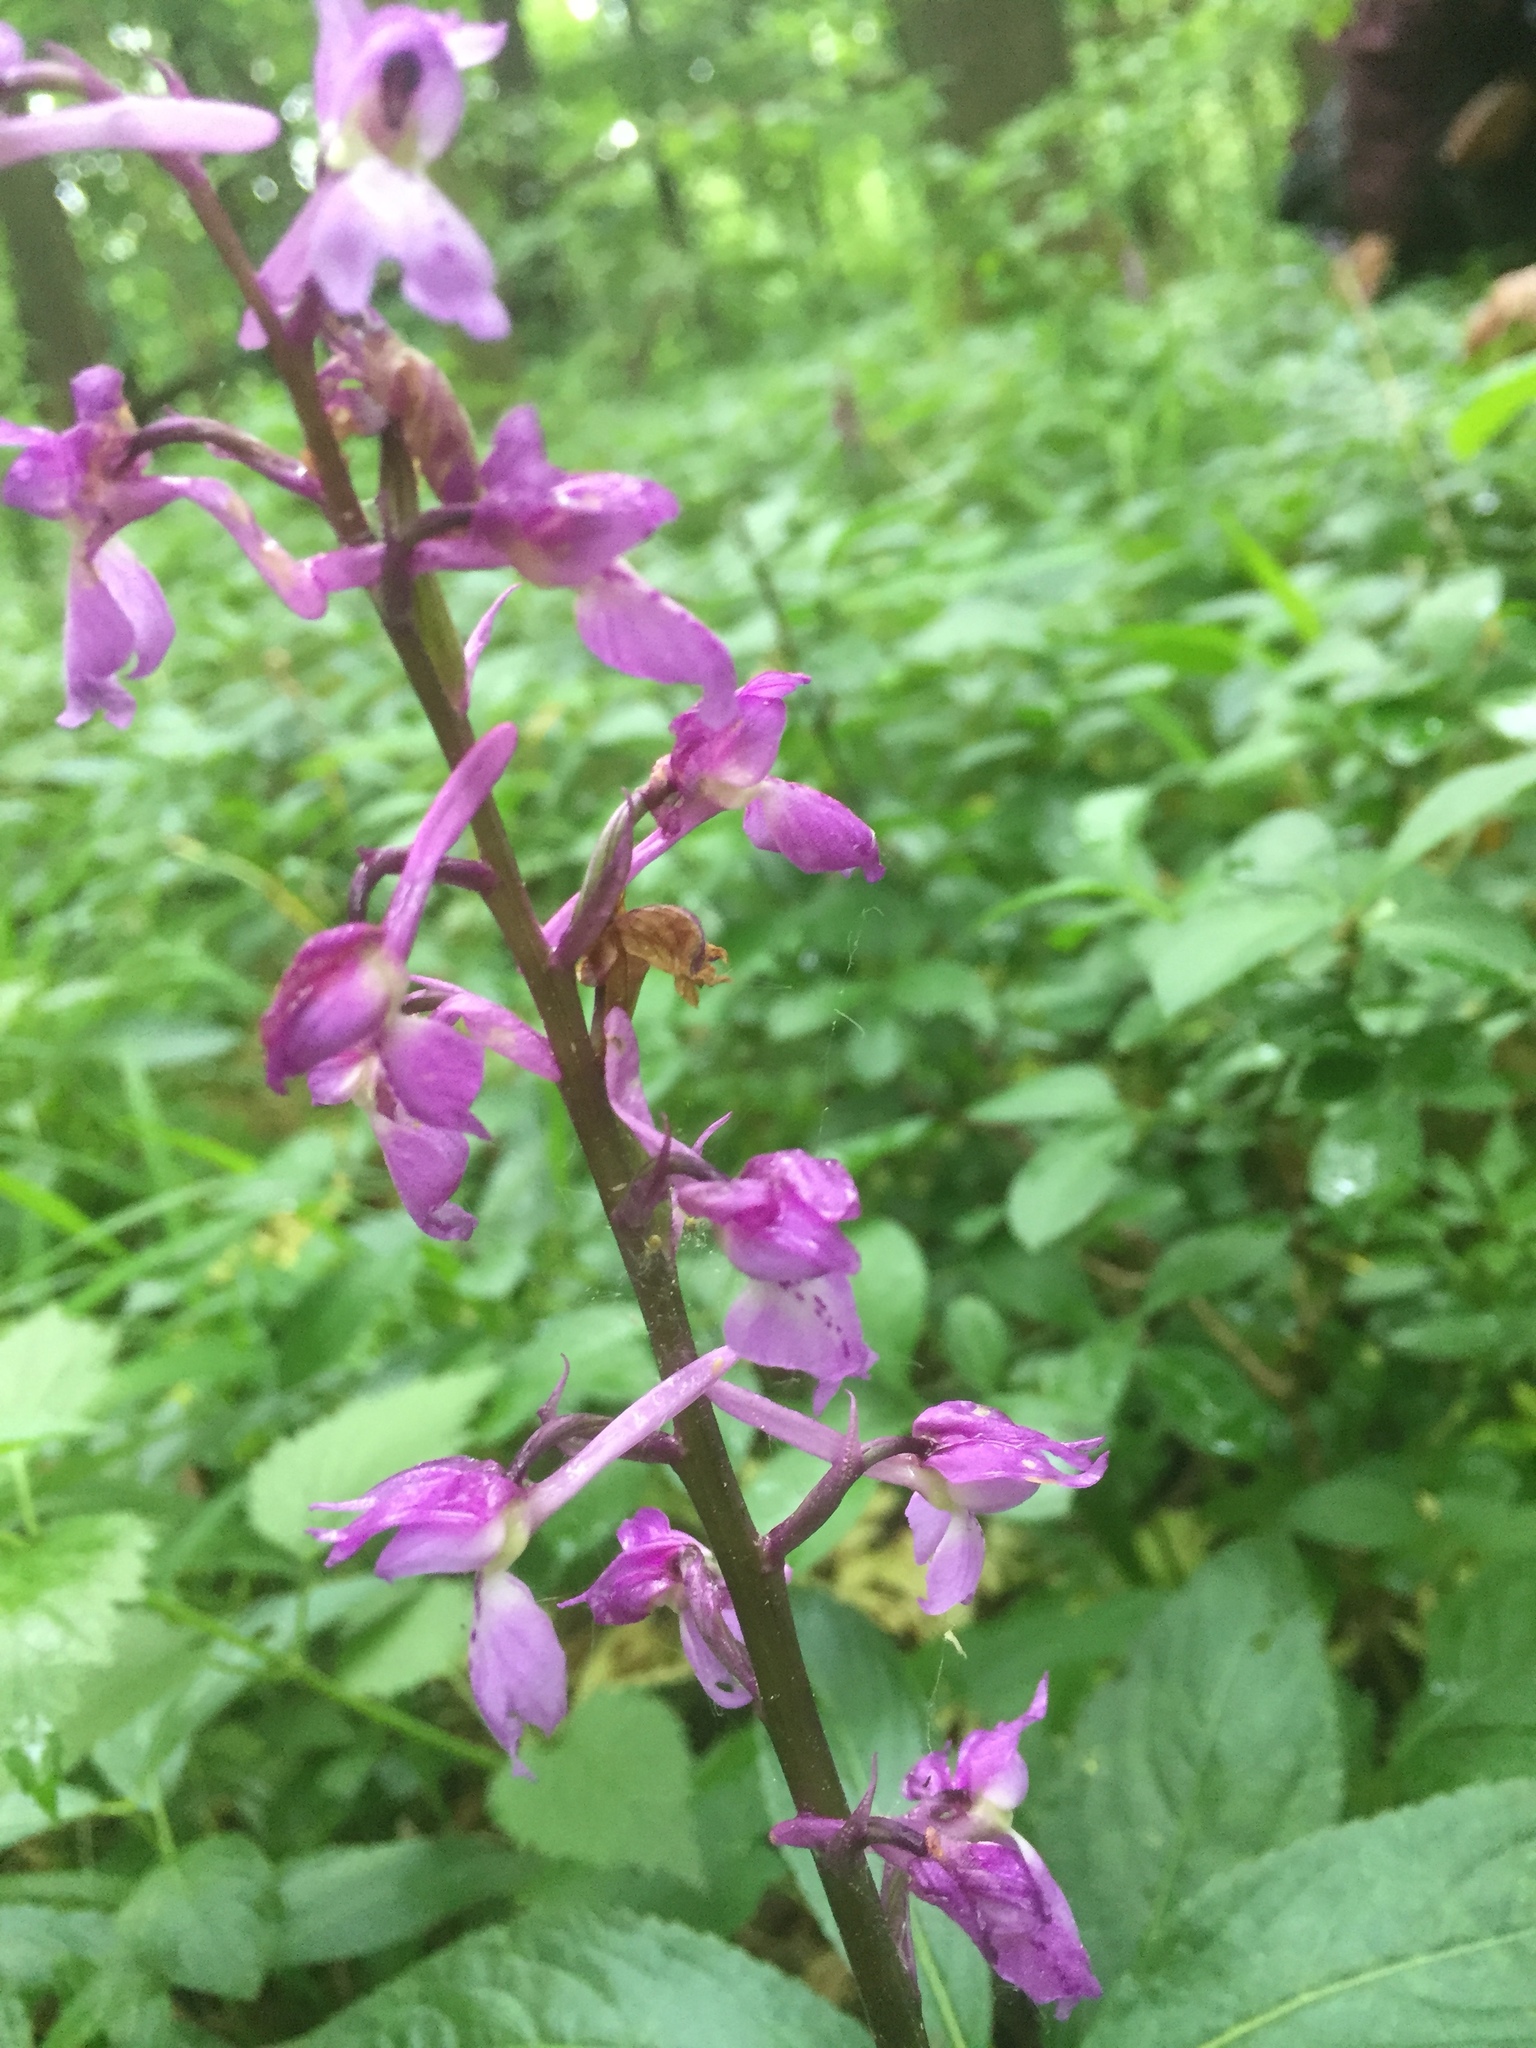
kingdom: Plantae
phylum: Tracheophyta
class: Liliopsida
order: Asparagales
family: Orchidaceae
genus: Orchis
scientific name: Orchis mascula
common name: Early-purple orchid
